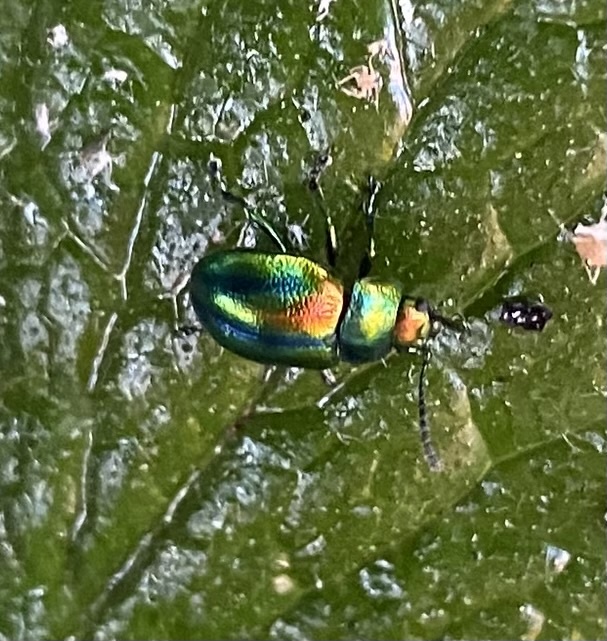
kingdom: Animalia
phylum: Arthropoda
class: Insecta
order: Coleoptera
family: Chrysomelidae
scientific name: Chrysomelidae
